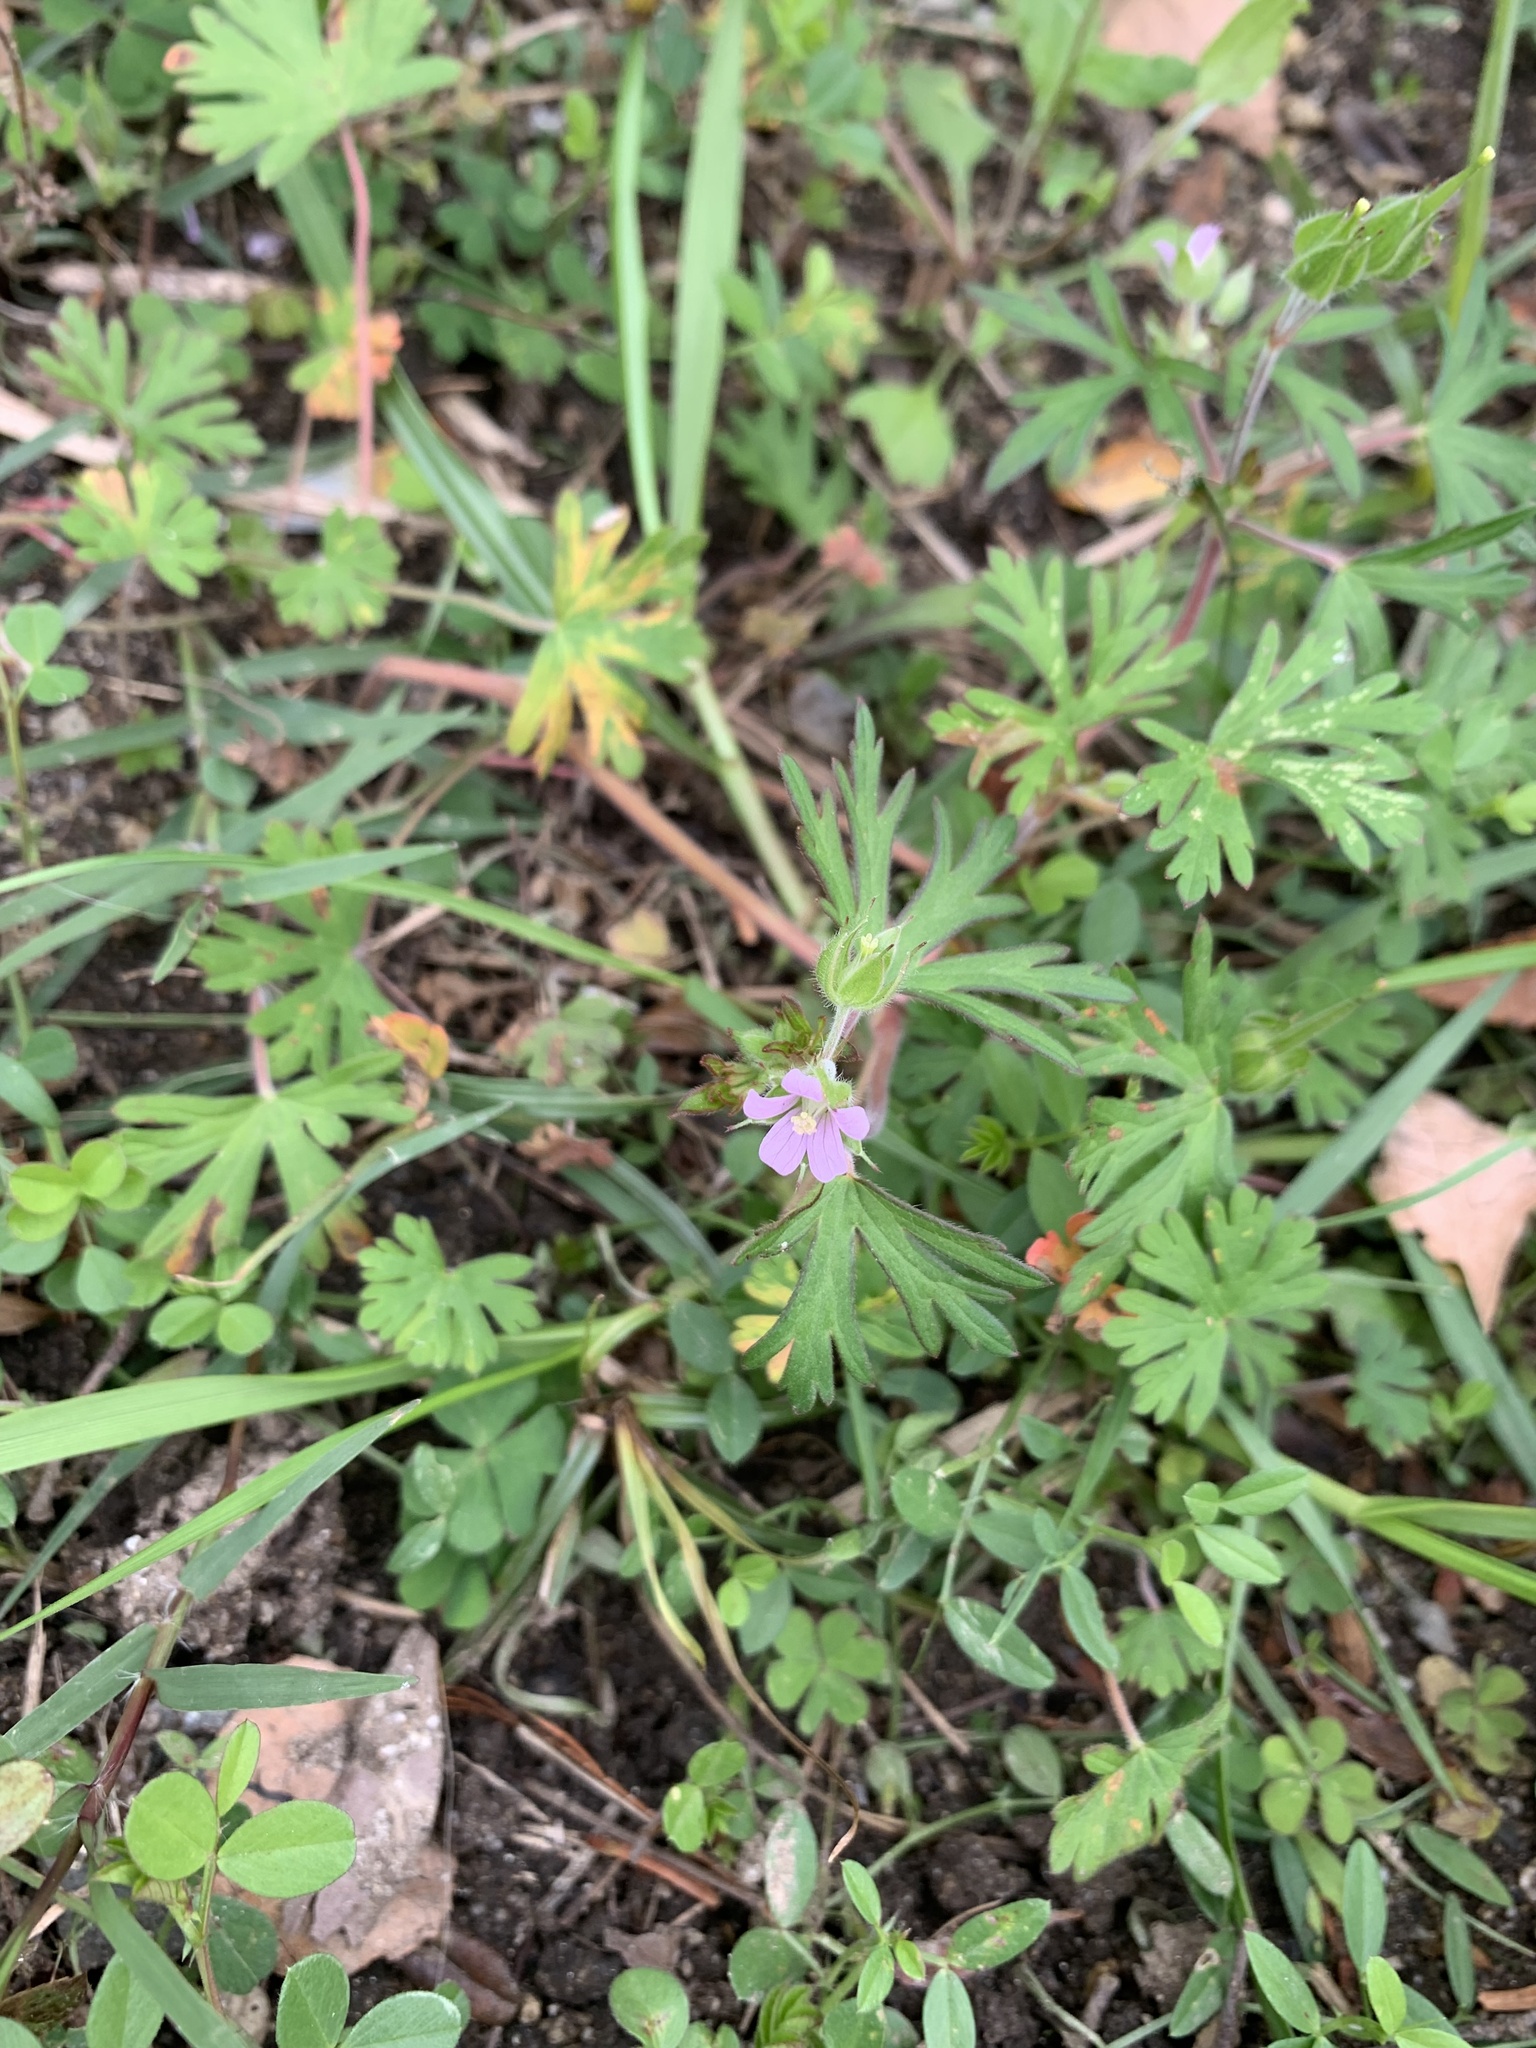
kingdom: Plantae
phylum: Tracheophyta
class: Magnoliopsida
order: Geraniales
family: Geraniaceae
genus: Geranium
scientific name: Geranium carolinianum
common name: Carolina crane's-bill
